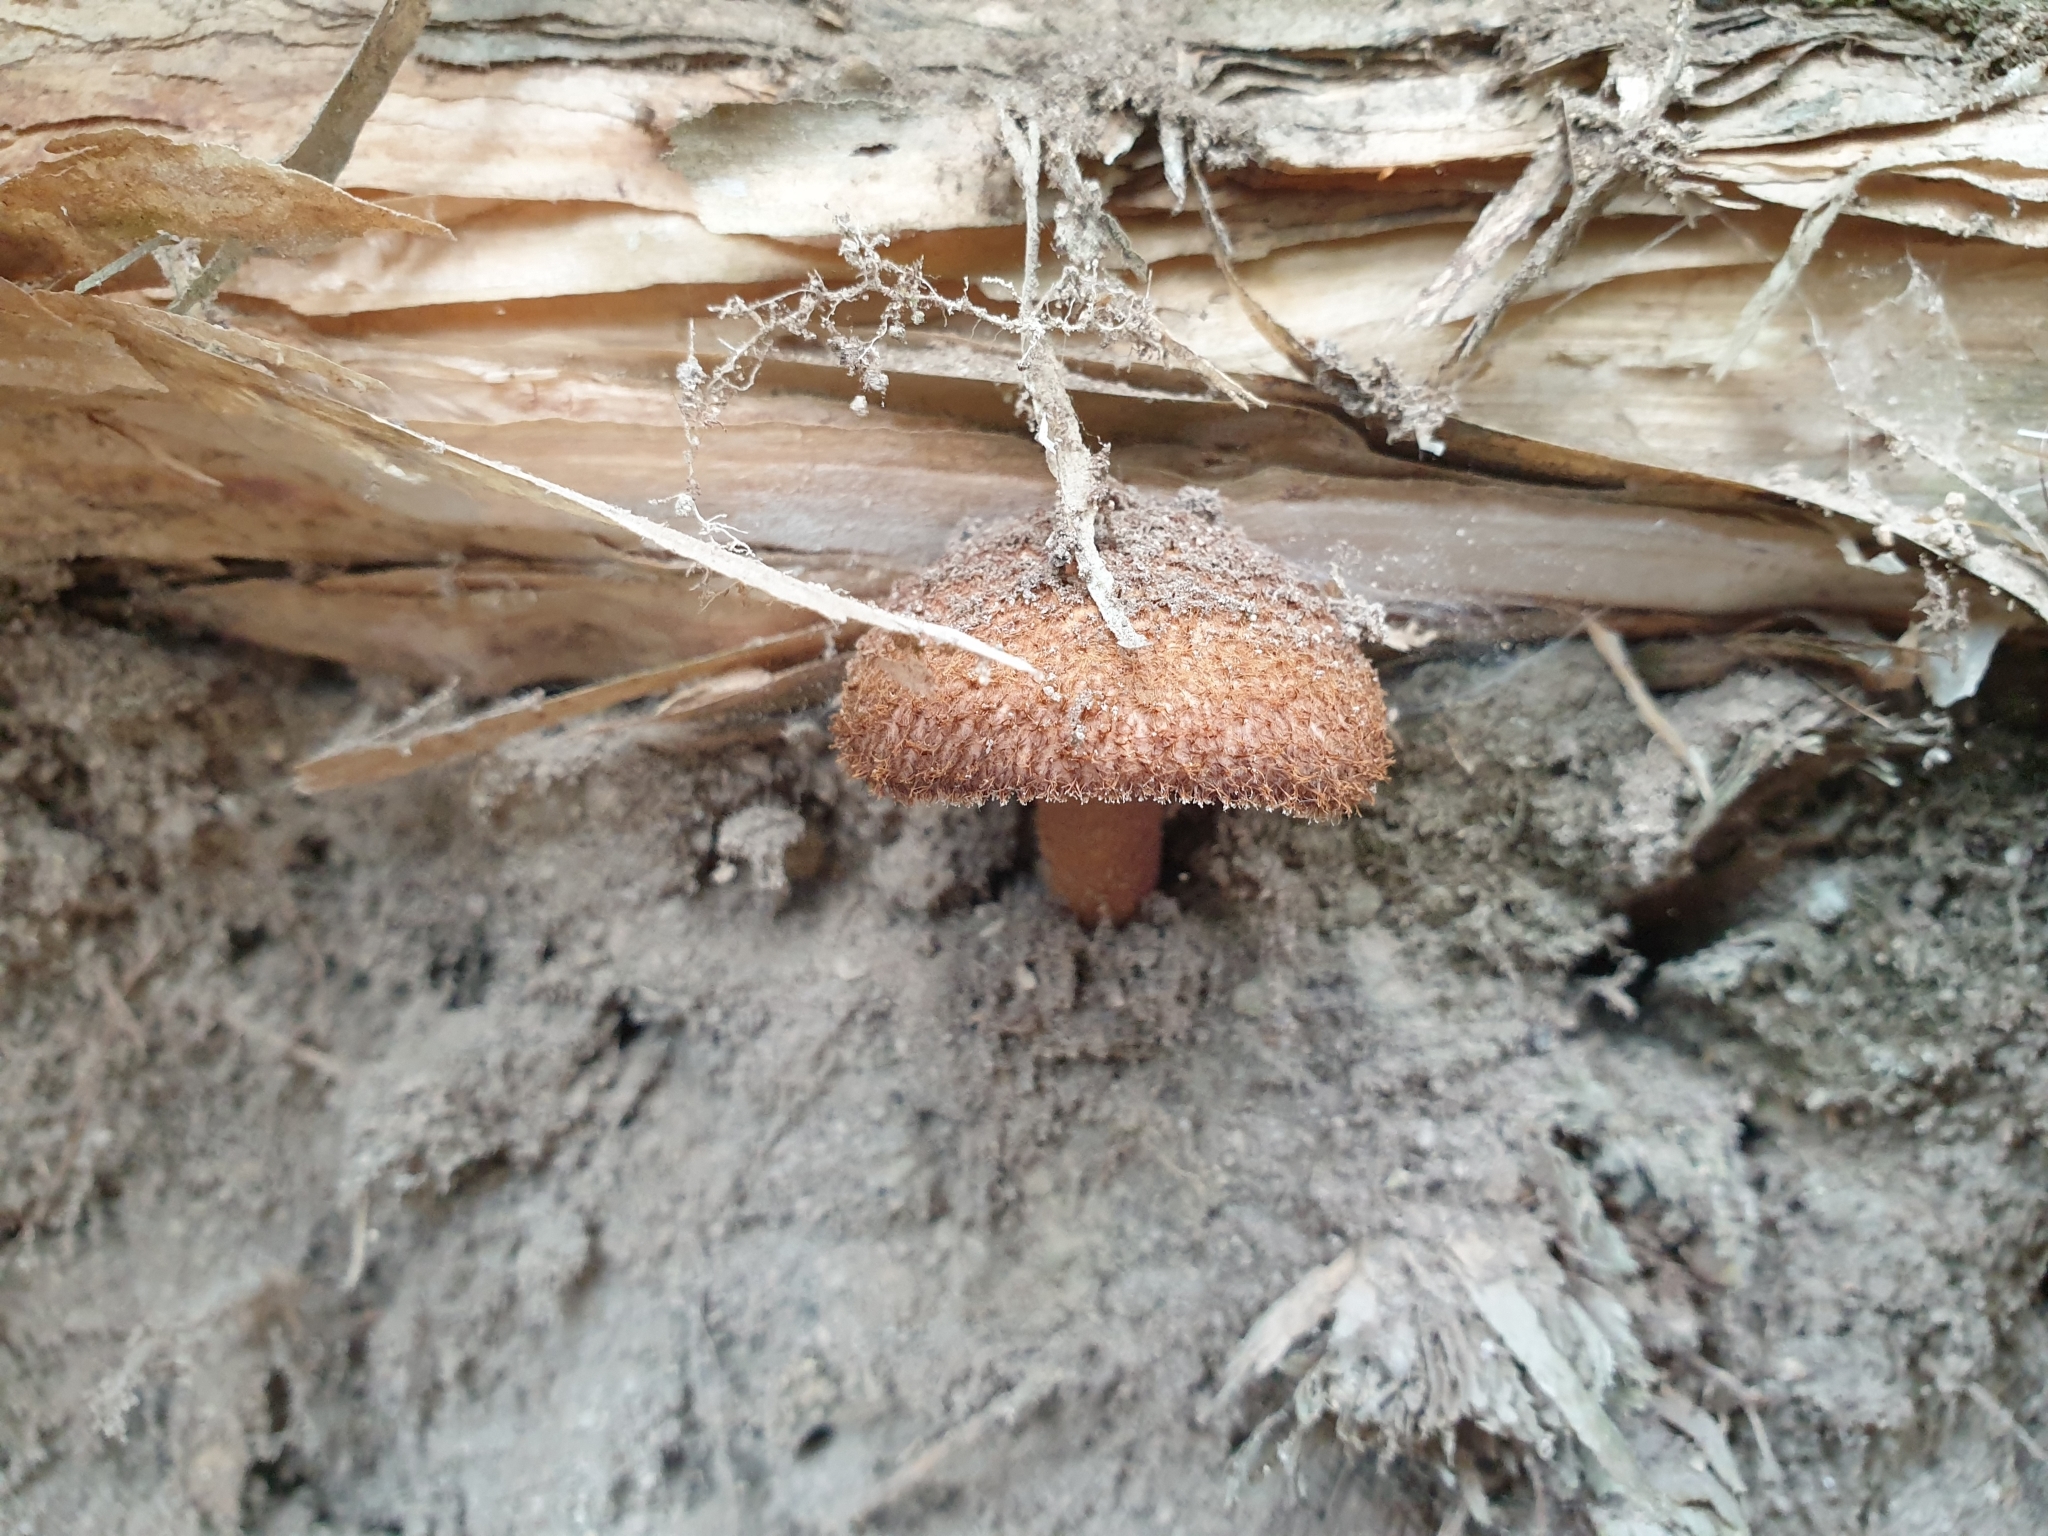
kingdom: Fungi
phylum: Basidiomycota
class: Agaricomycetes
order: Agaricales
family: Tricholomataceae
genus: Tricholomopsis
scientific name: Tricholomopsis scabra
